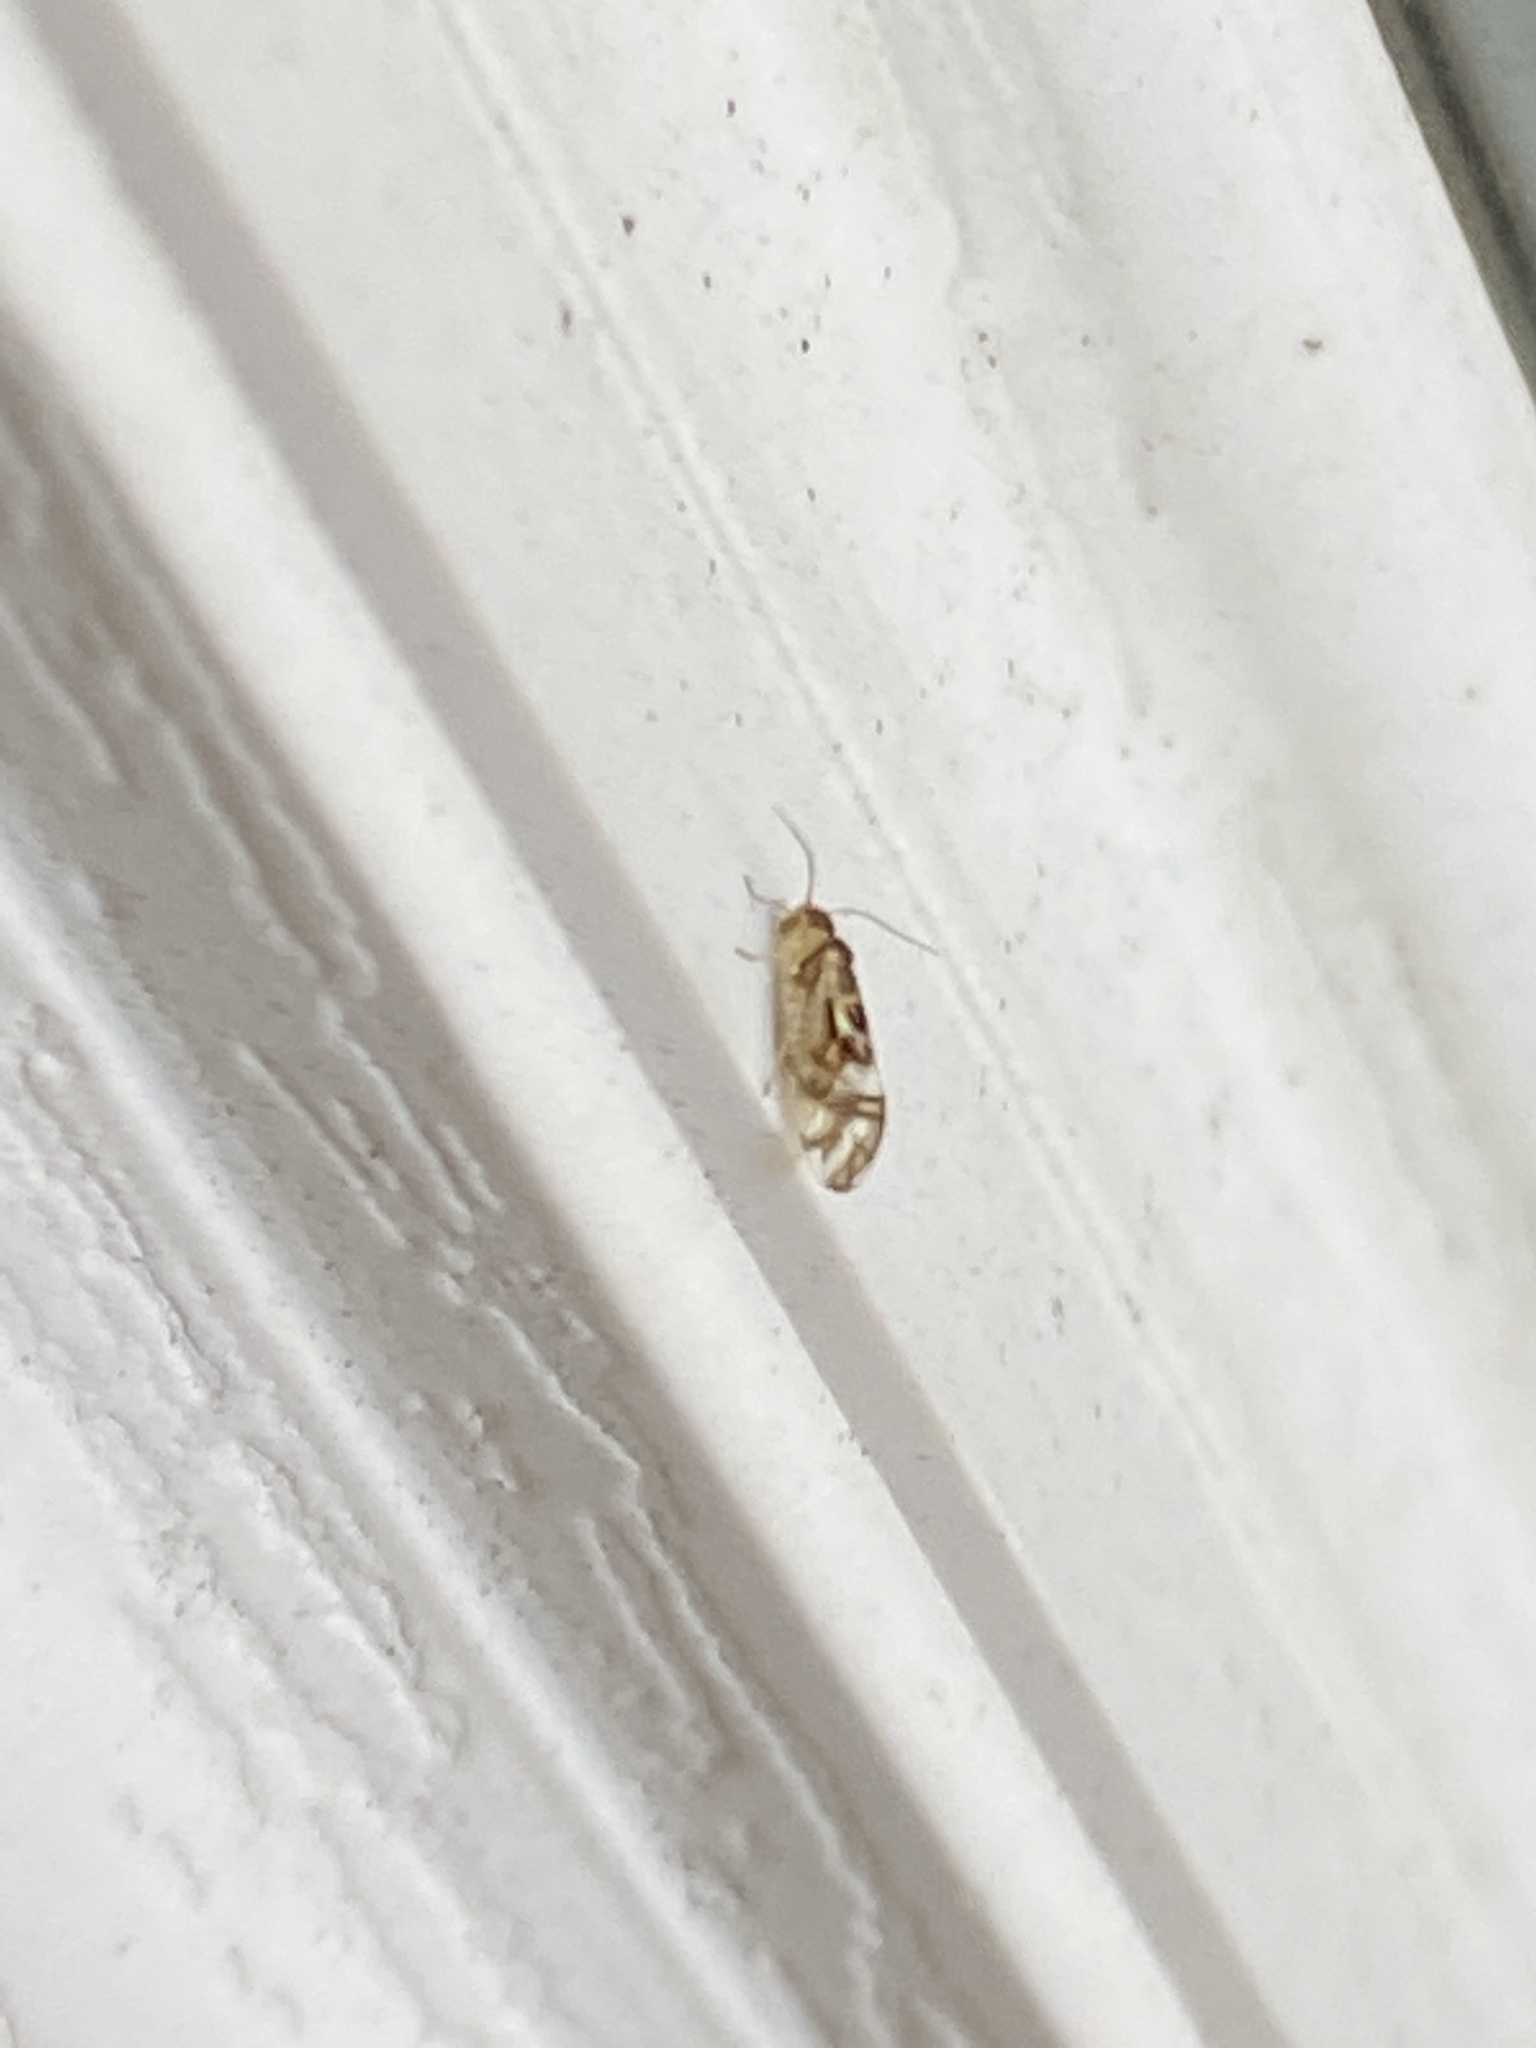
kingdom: Animalia
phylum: Arthropoda
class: Insecta
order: Psocodea
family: Stenopsocidae
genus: Graphopsocus
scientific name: Graphopsocus cruciatus
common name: Lizard bark louse
